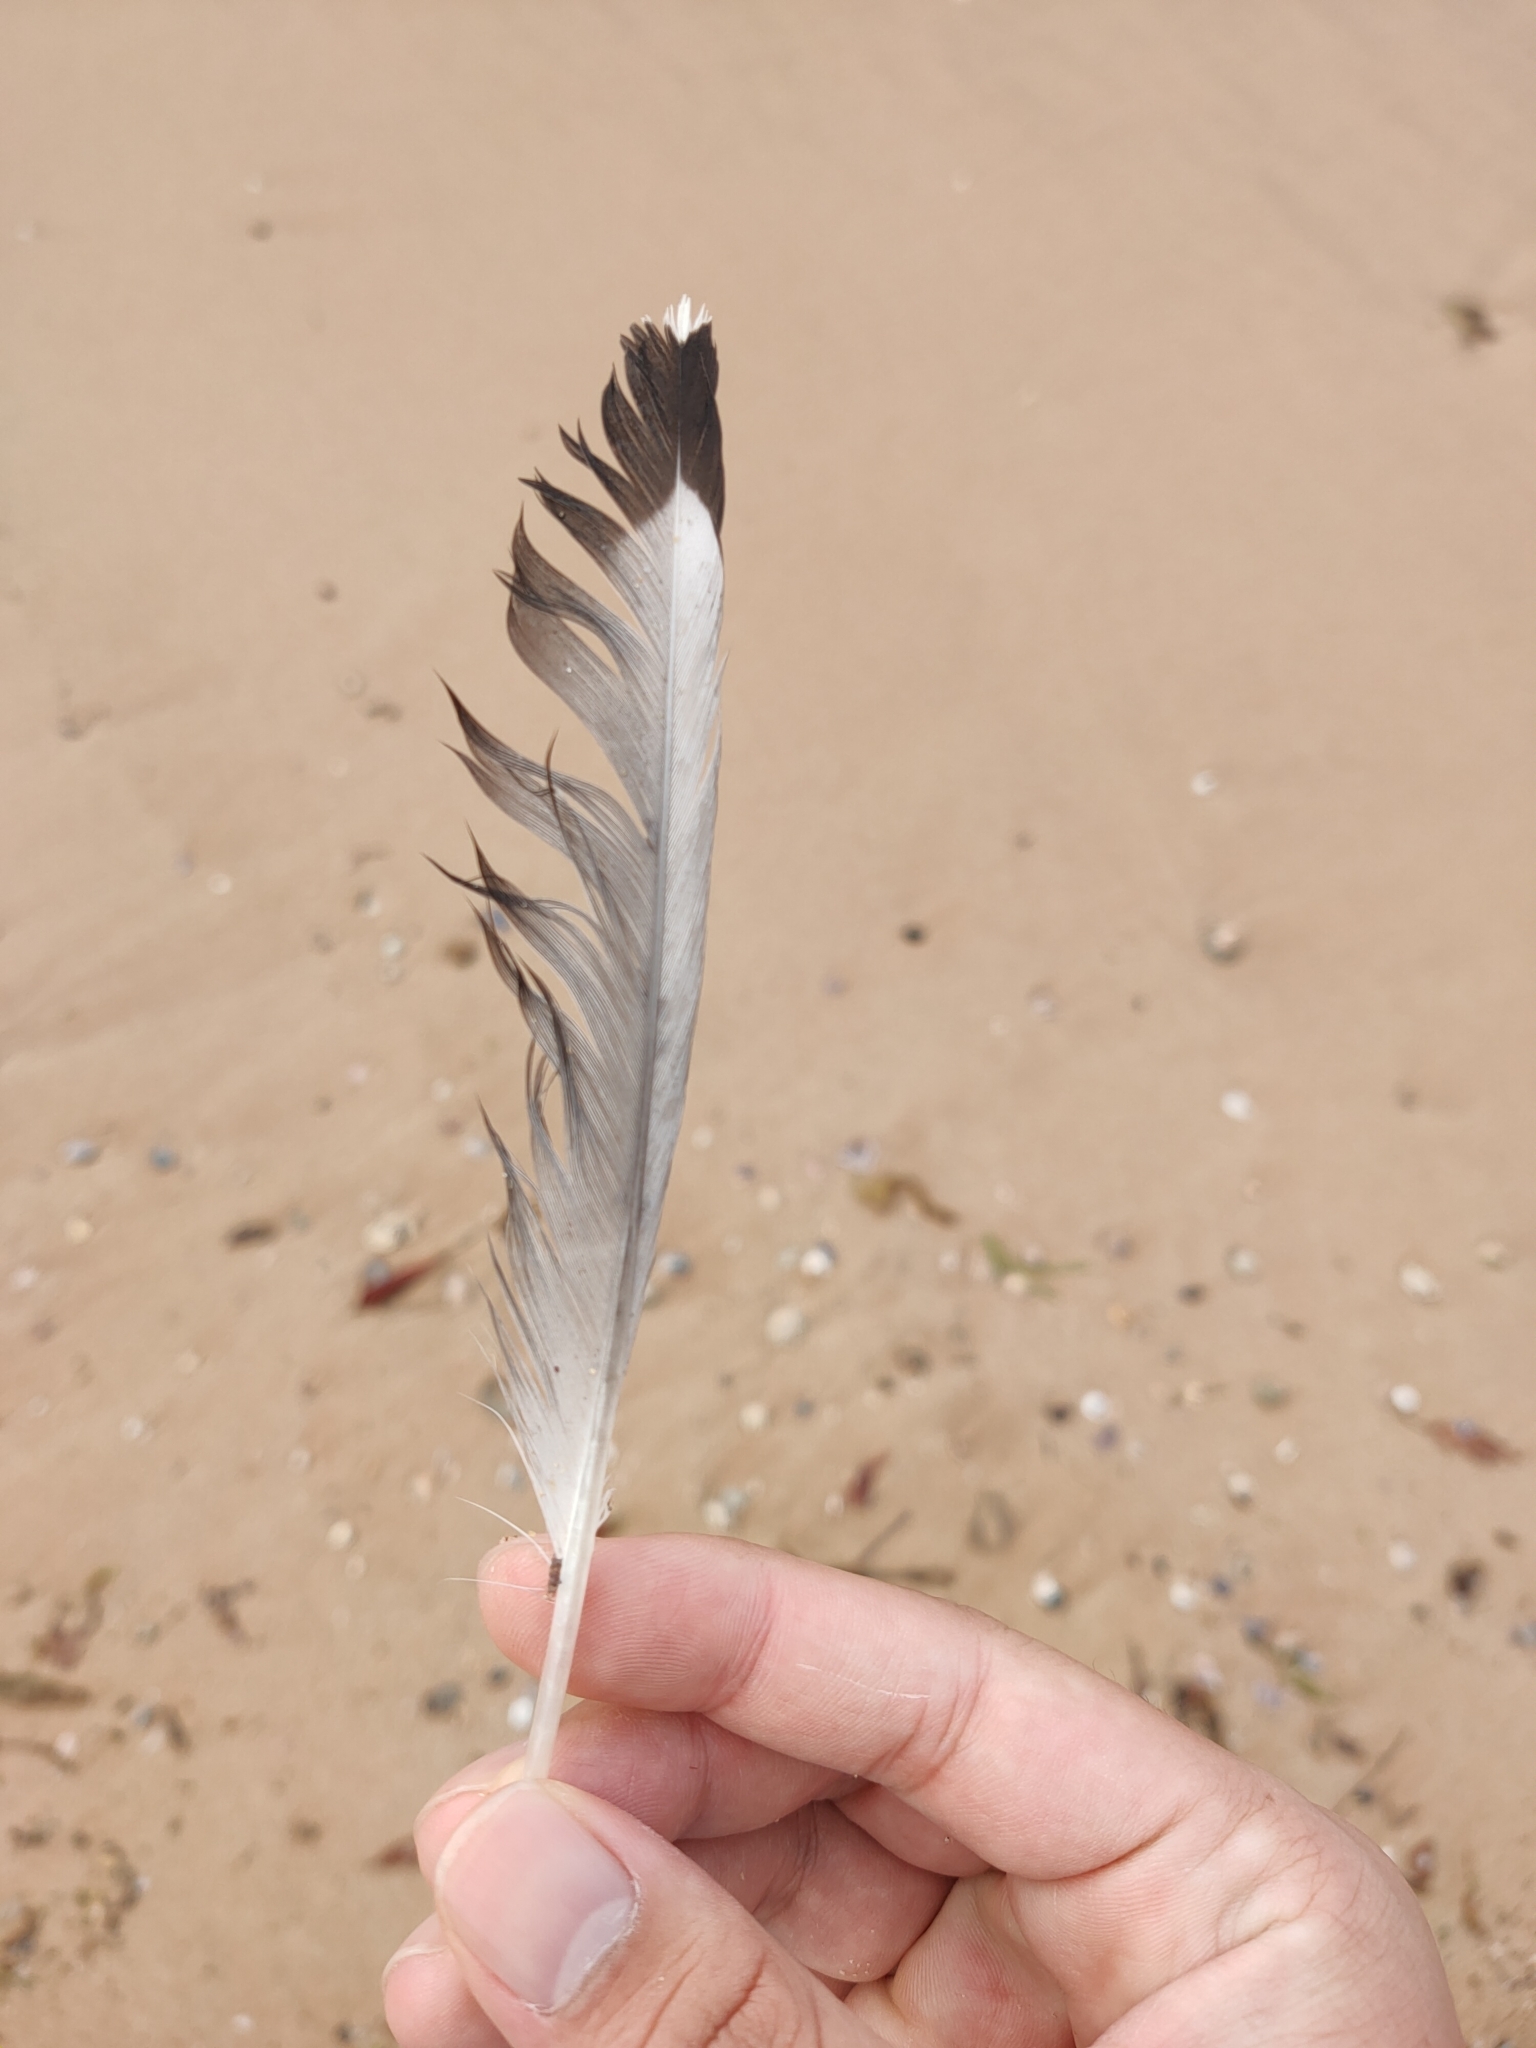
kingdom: Animalia
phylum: Chordata
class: Aves
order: Charadriiformes
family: Laridae
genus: Chroicocephalus
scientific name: Chroicocephalus novaehollandiae
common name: Silver gull
